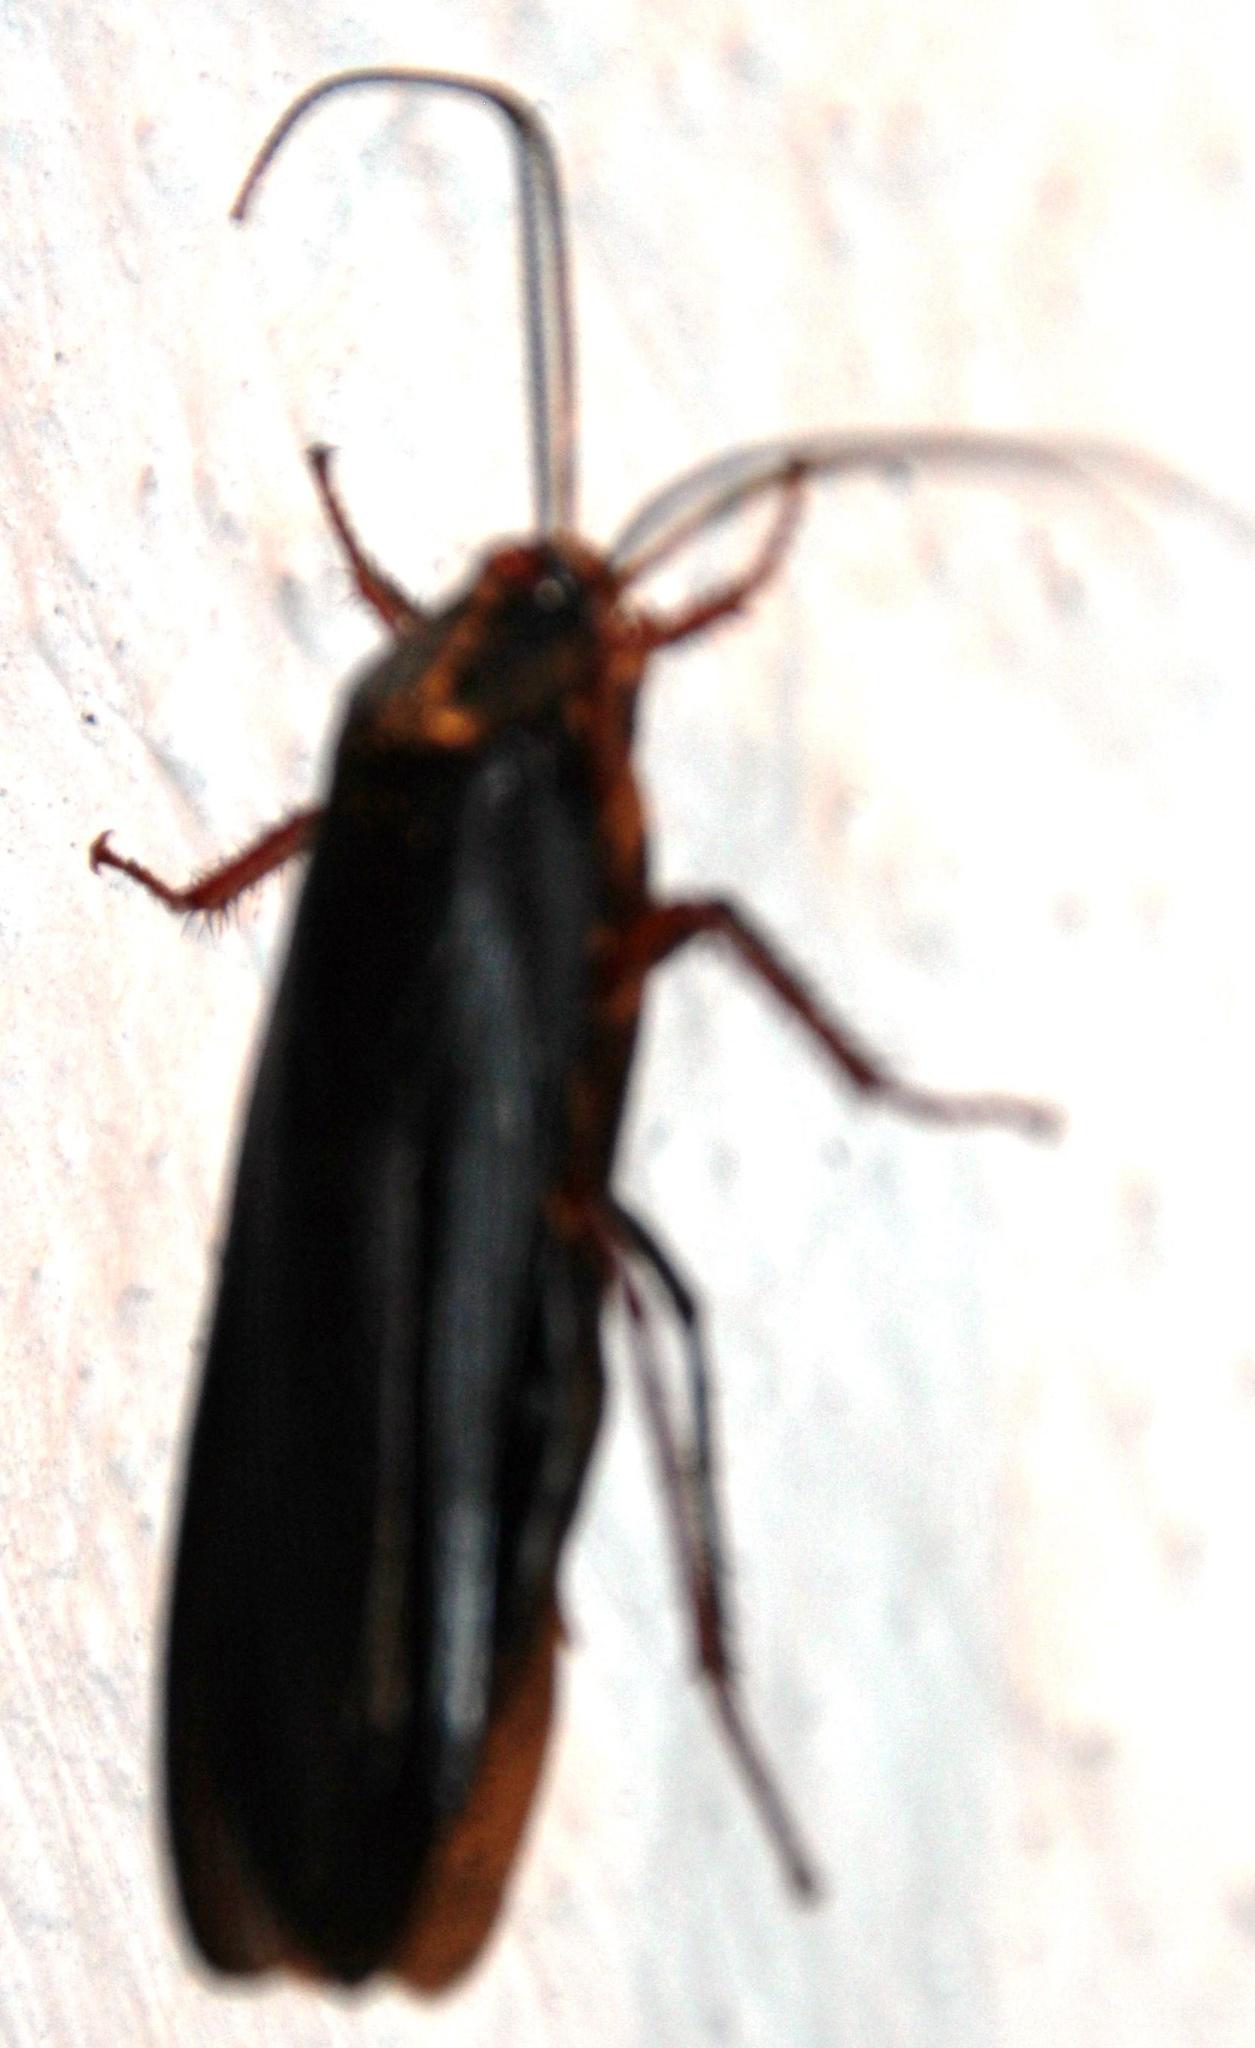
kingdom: Animalia
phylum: Arthropoda
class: Insecta
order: Blattodea
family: Blattidae
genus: Deropeltis
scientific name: Deropeltis erythrocephala
